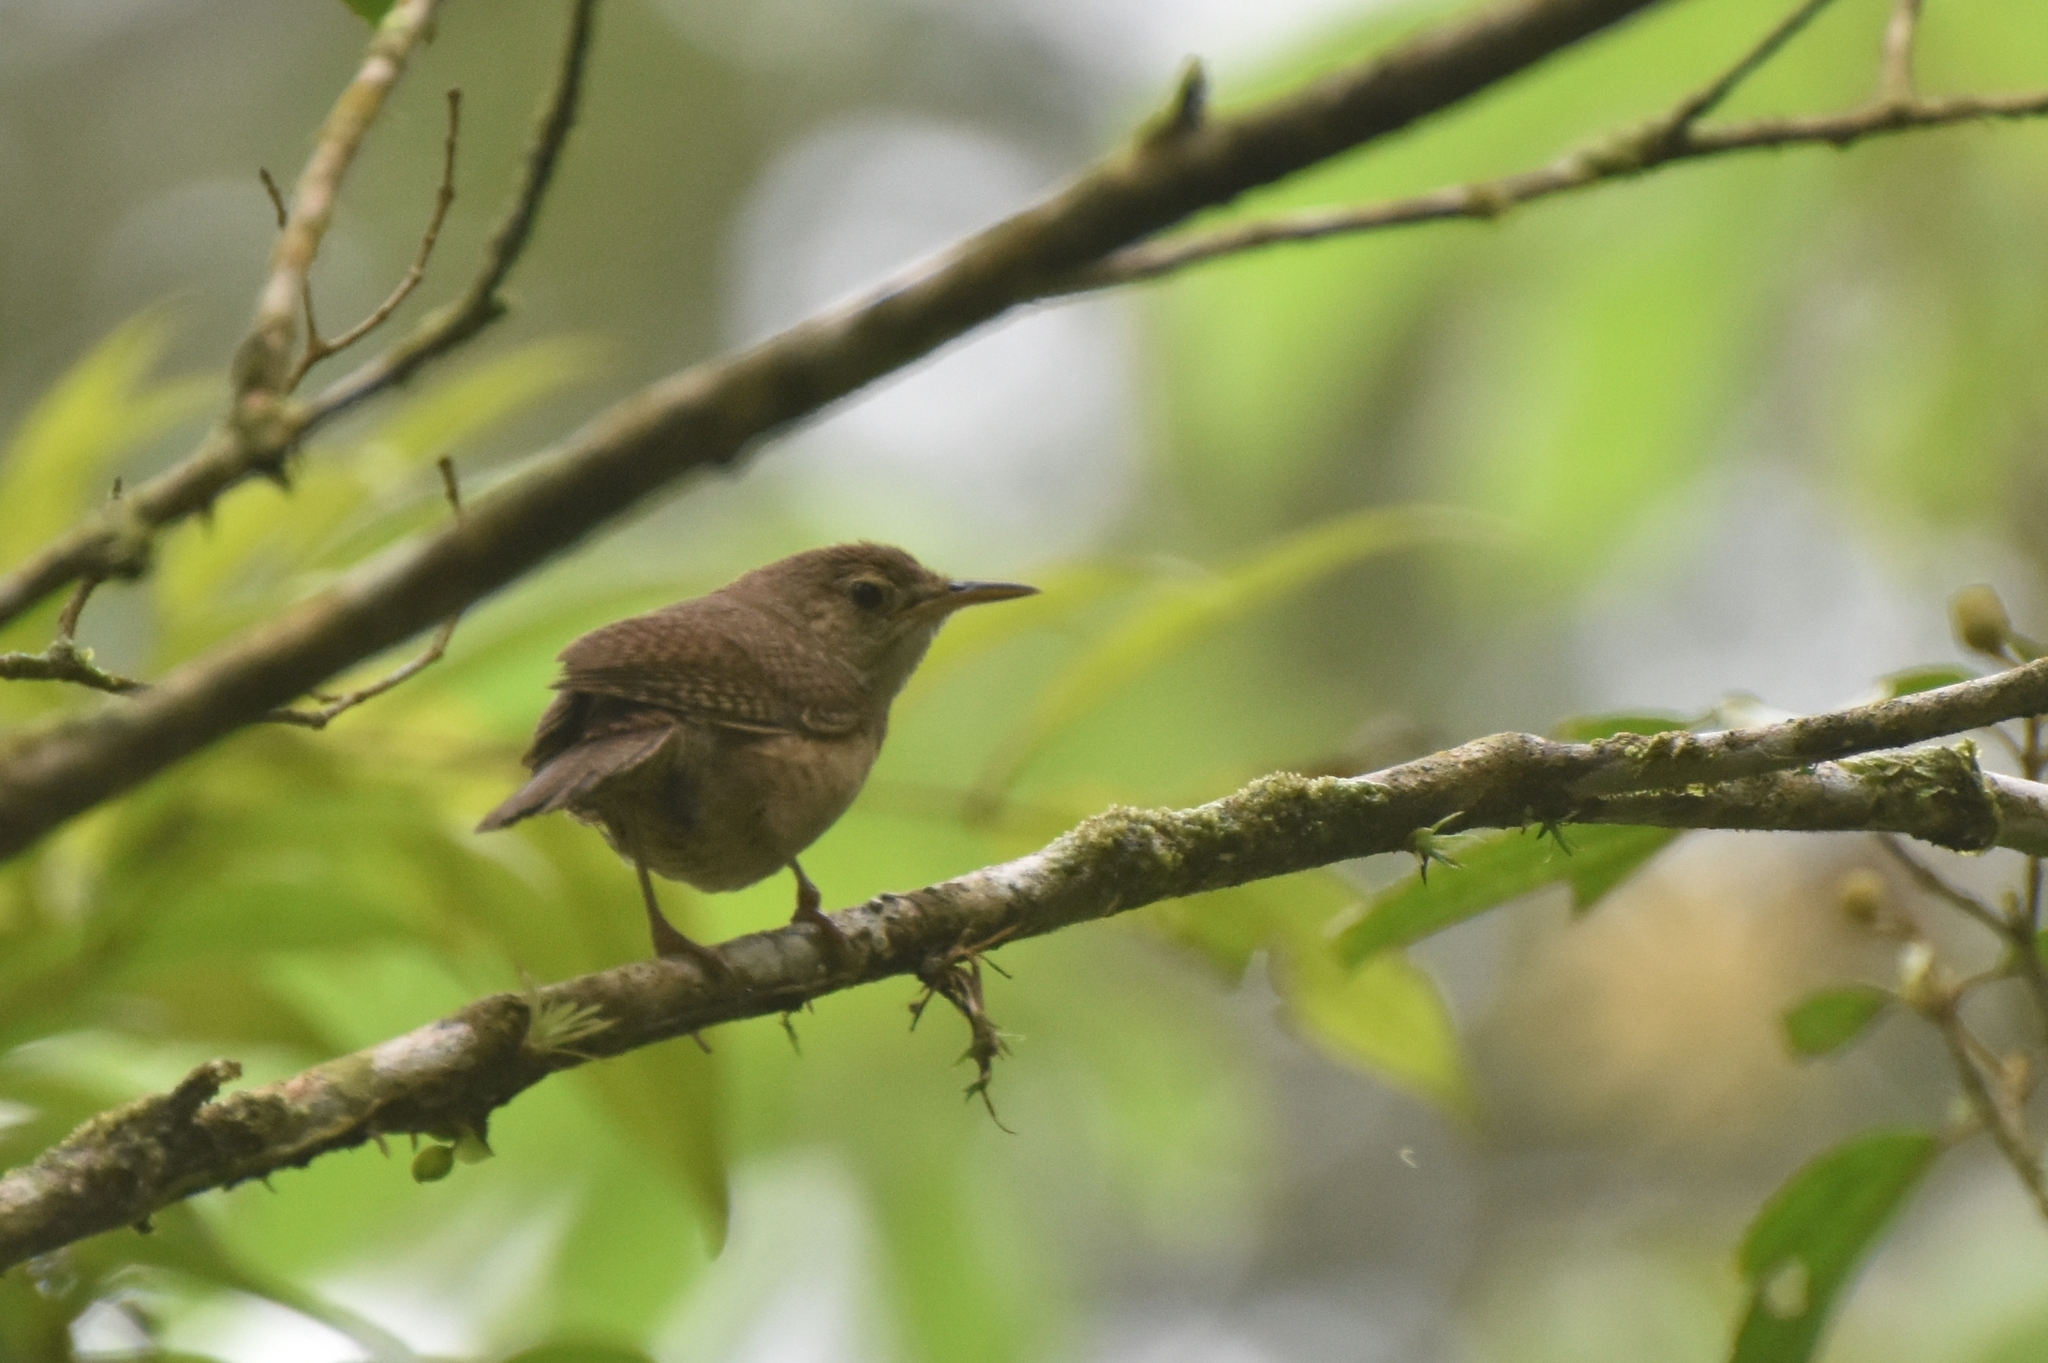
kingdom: Animalia
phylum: Chordata
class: Aves
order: Passeriformes
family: Troglodytidae
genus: Troglodytes
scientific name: Troglodytes aedon
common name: House wren
